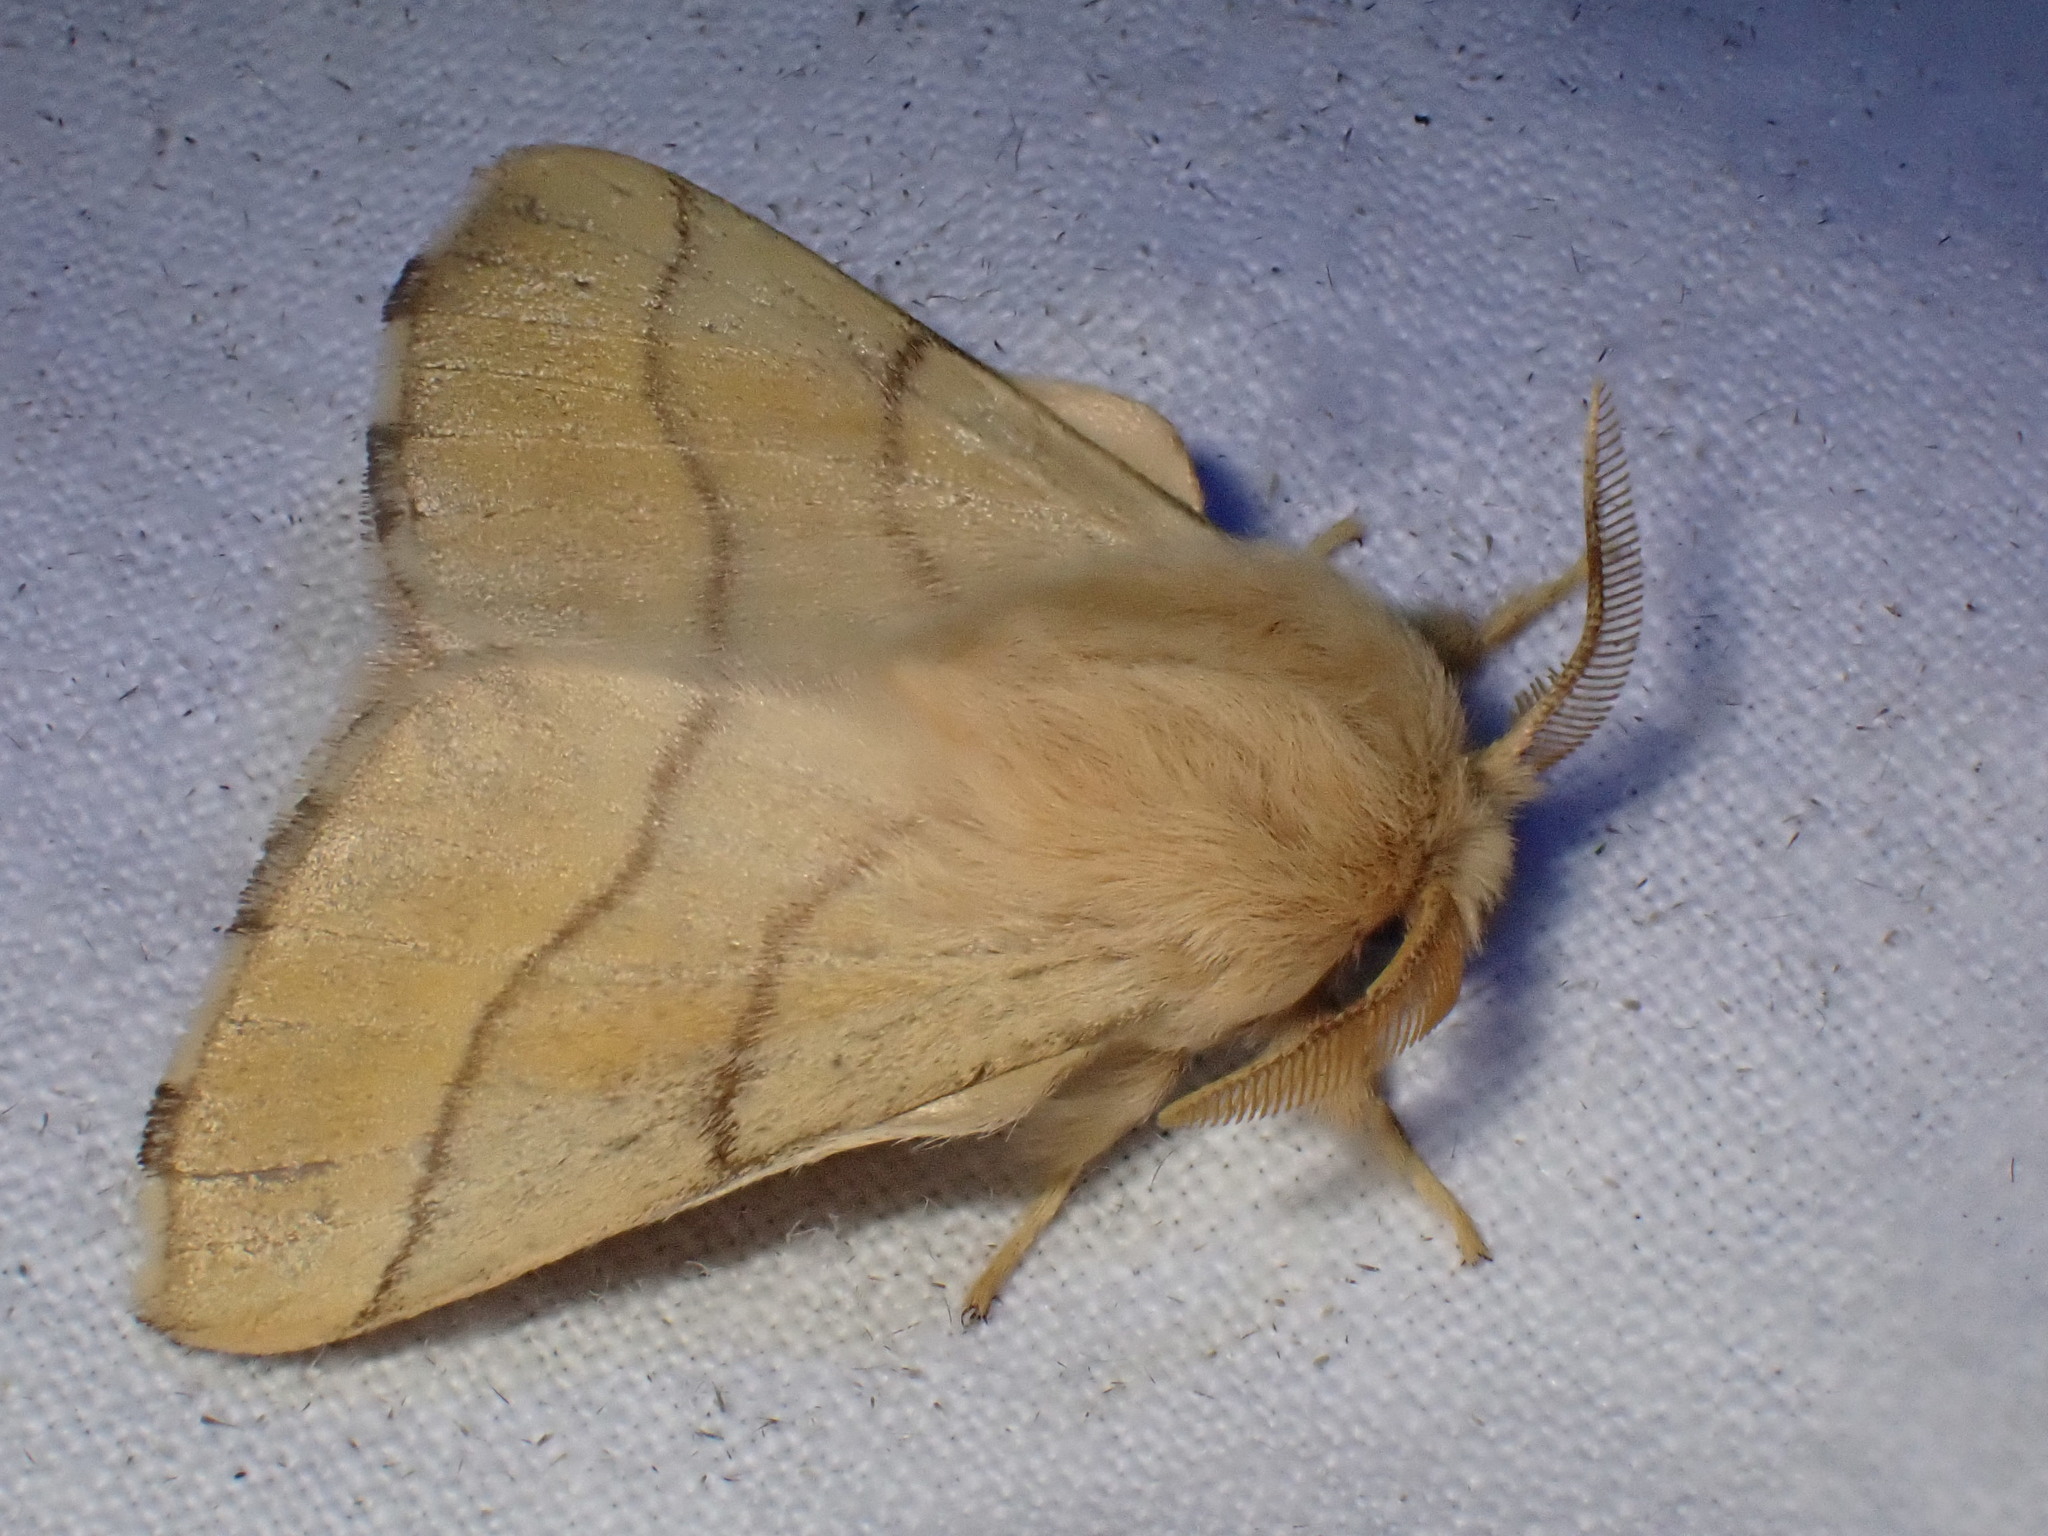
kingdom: Animalia
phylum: Arthropoda
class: Insecta
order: Lepidoptera
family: Lasiocampidae
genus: Malacosoma
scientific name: Malacosoma neustria
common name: The lackey
